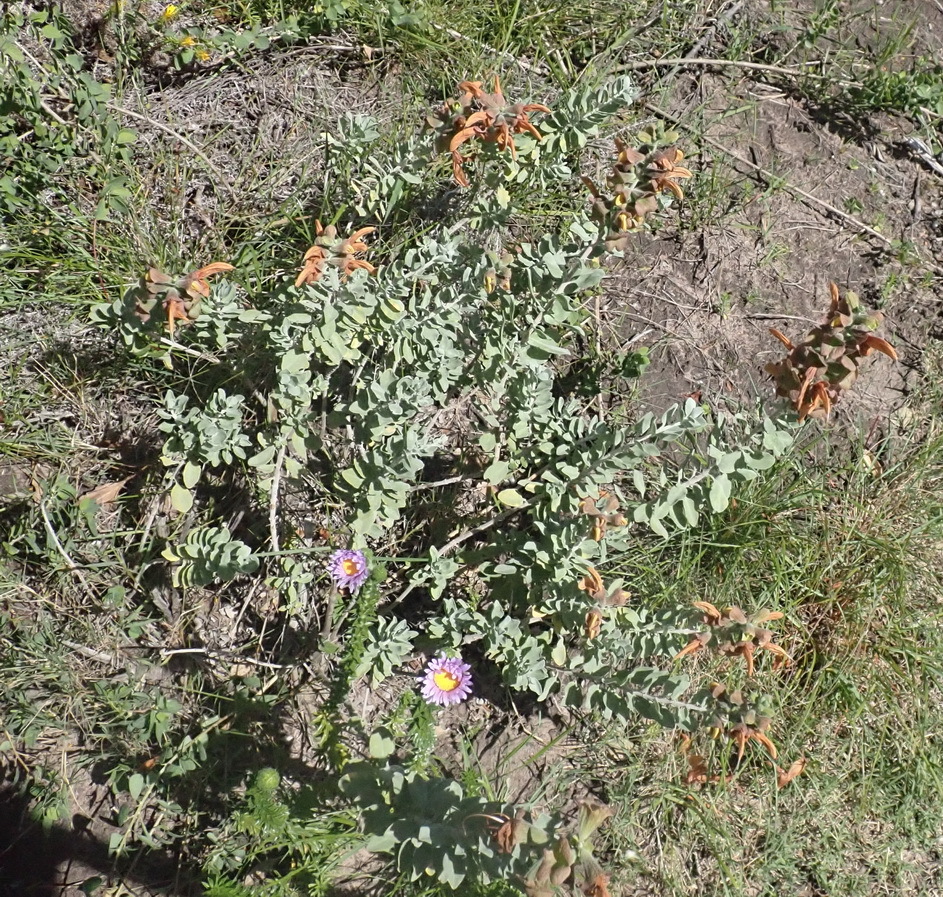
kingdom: Plantae
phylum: Tracheophyta
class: Magnoliopsida
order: Lamiales
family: Lamiaceae
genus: Salvia
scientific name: Salvia aurea
